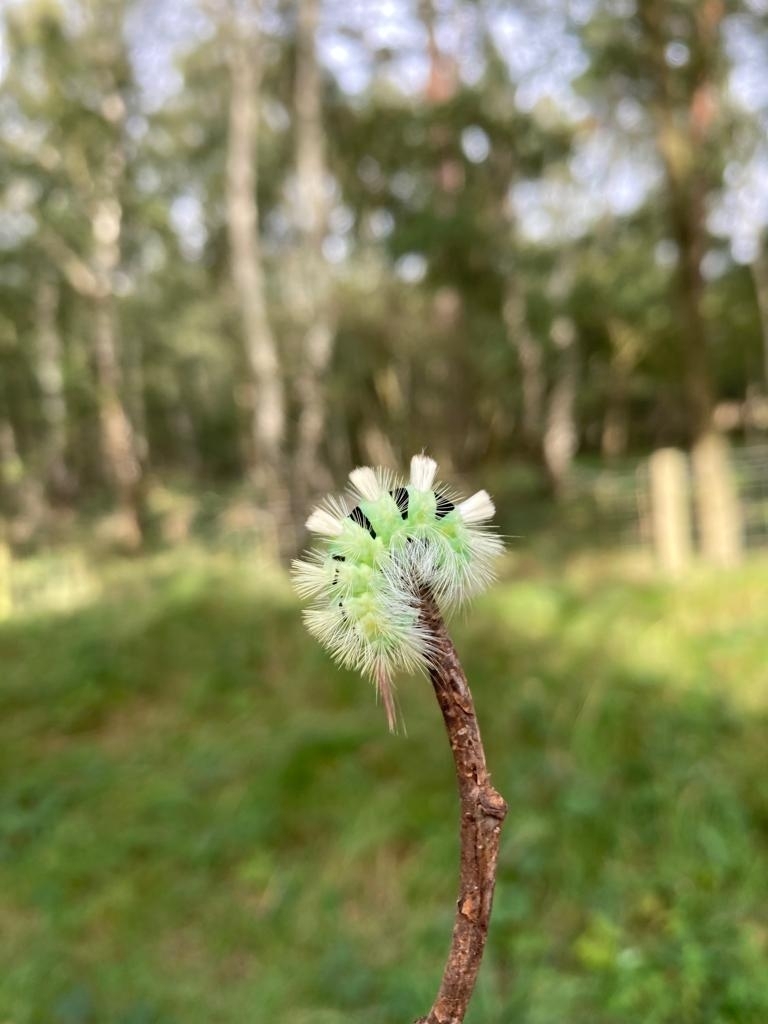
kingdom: Animalia
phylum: Arthropoda
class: Insecta
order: Lepidoptera
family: Erebidae
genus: Calliteara
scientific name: Calliteara pudibunda
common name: Pale tussock
